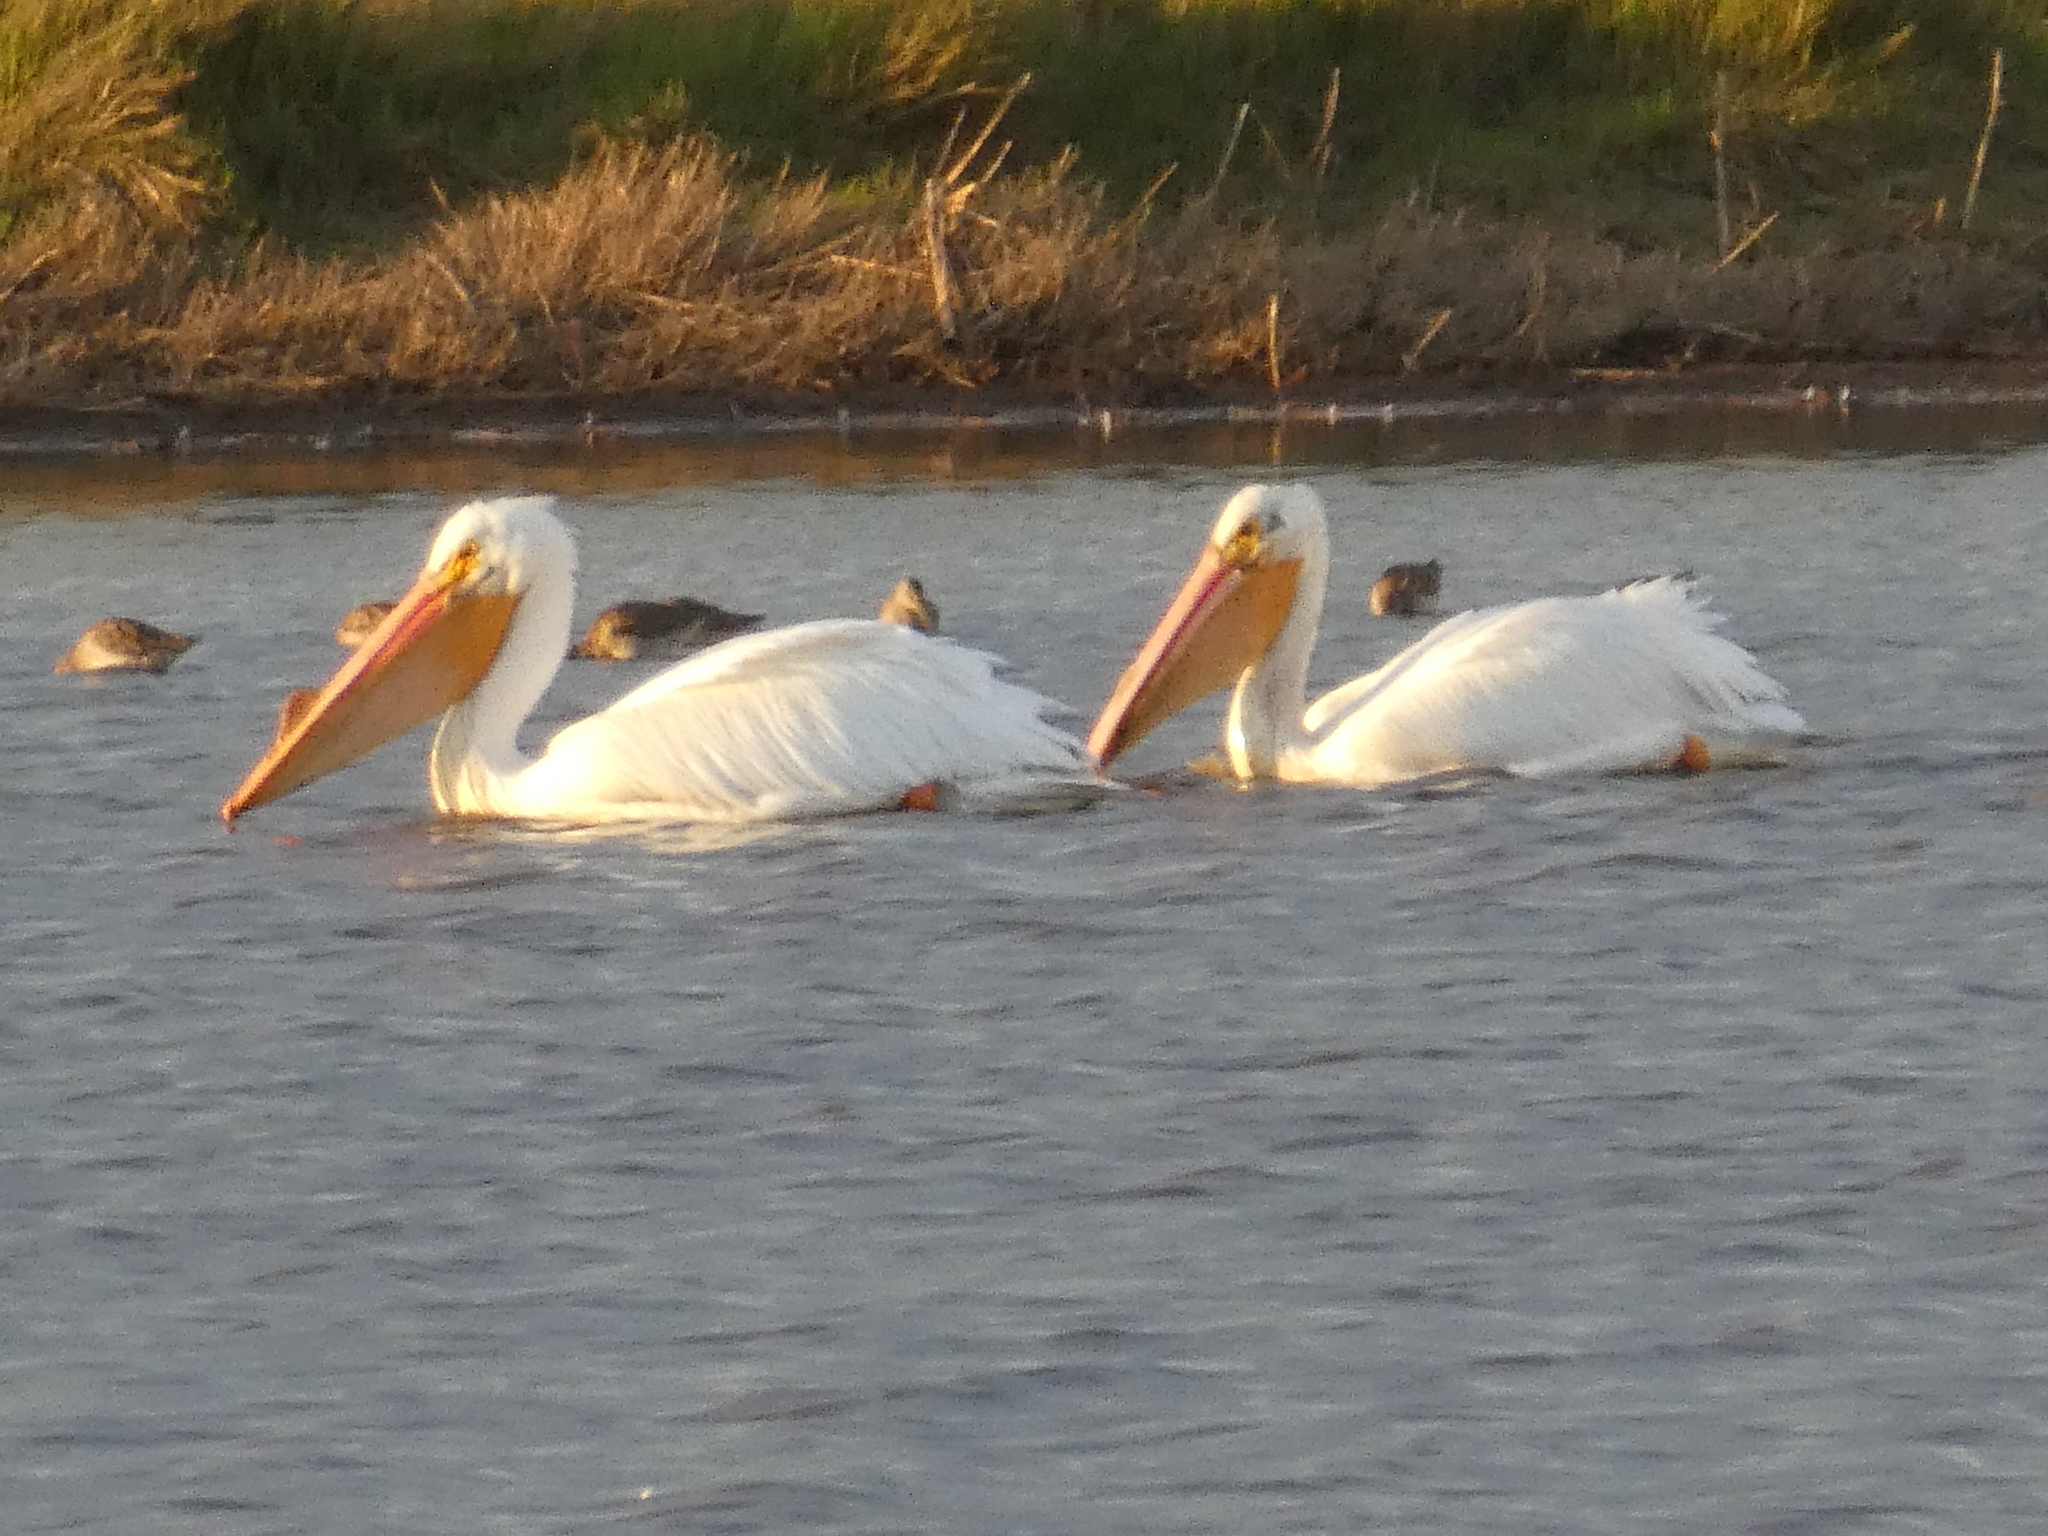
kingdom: Animalia
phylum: Chordata
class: Aves
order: Pelecaniformes
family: Pelecanidae
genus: Pelecanus
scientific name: Pelecanus erythrorhynchos
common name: American white pelican
